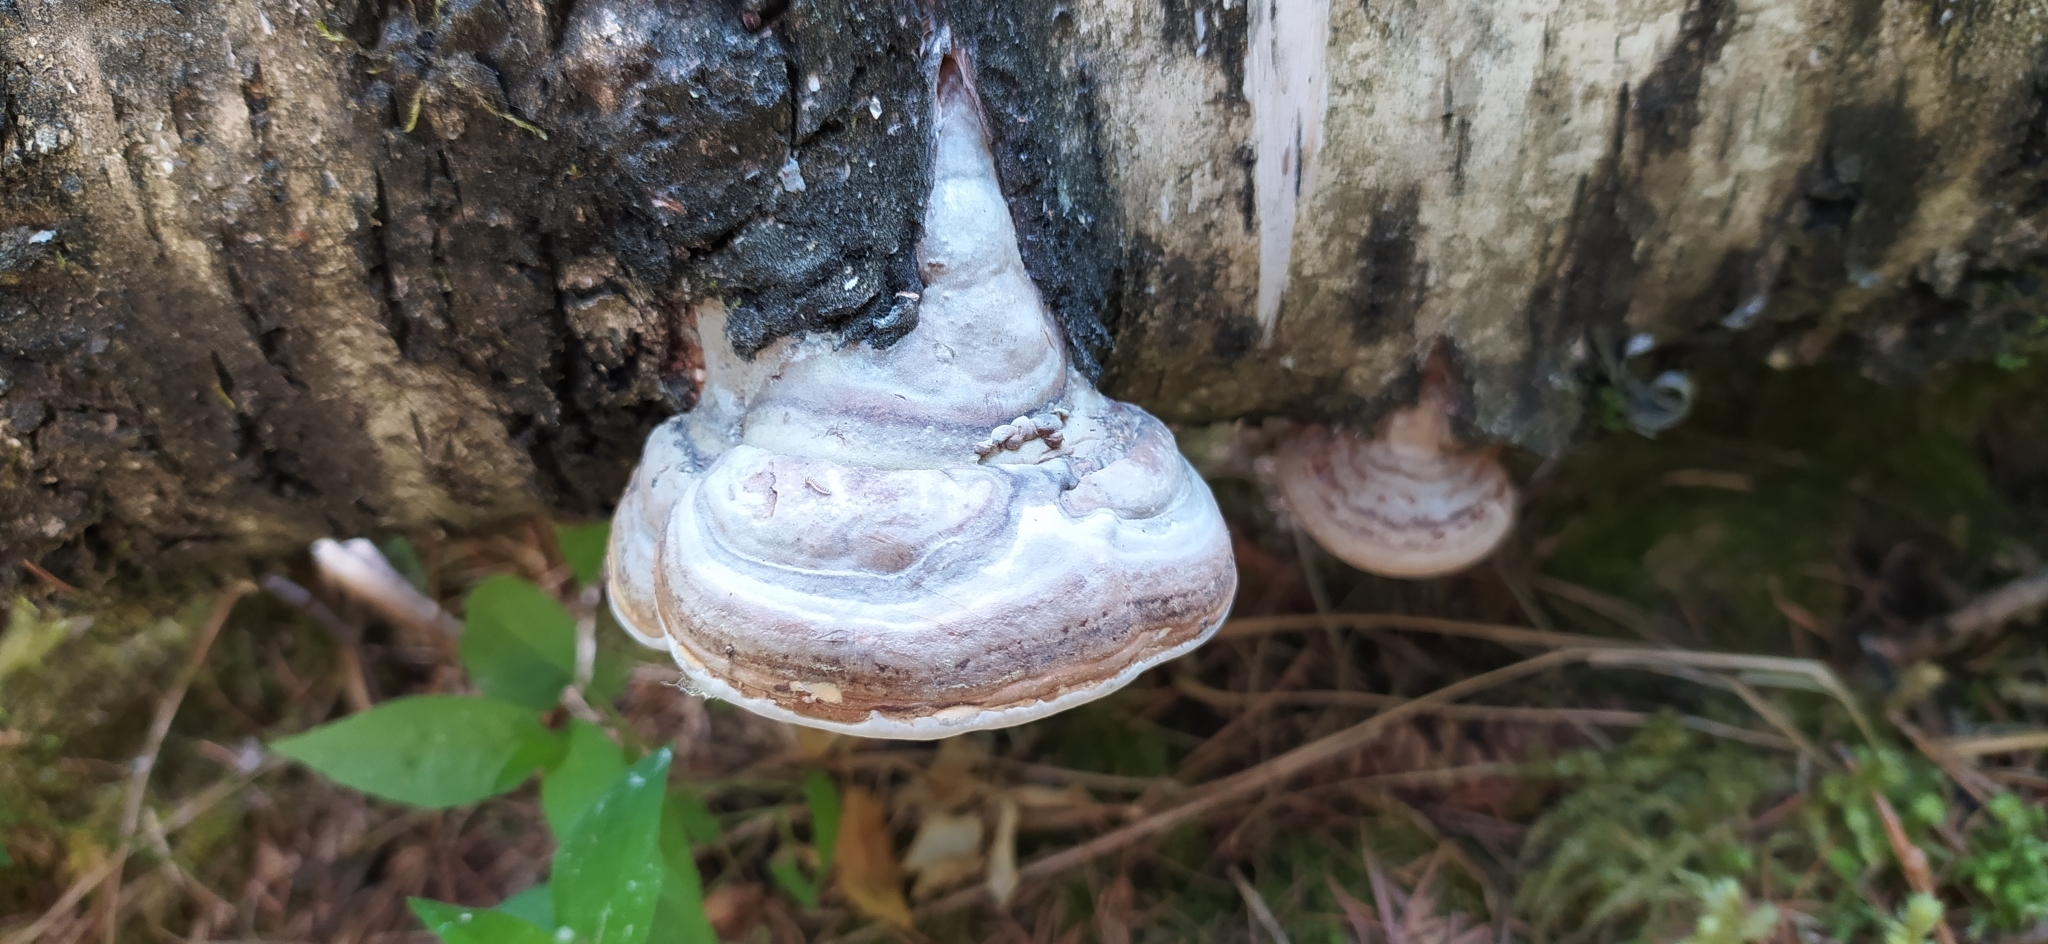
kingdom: Fungi
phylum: Basidiomycota
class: Agaricomycetes
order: Polyporales
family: Polyporaceae
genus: Fomes
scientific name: Fomes fomentarius
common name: Hoof fungus
